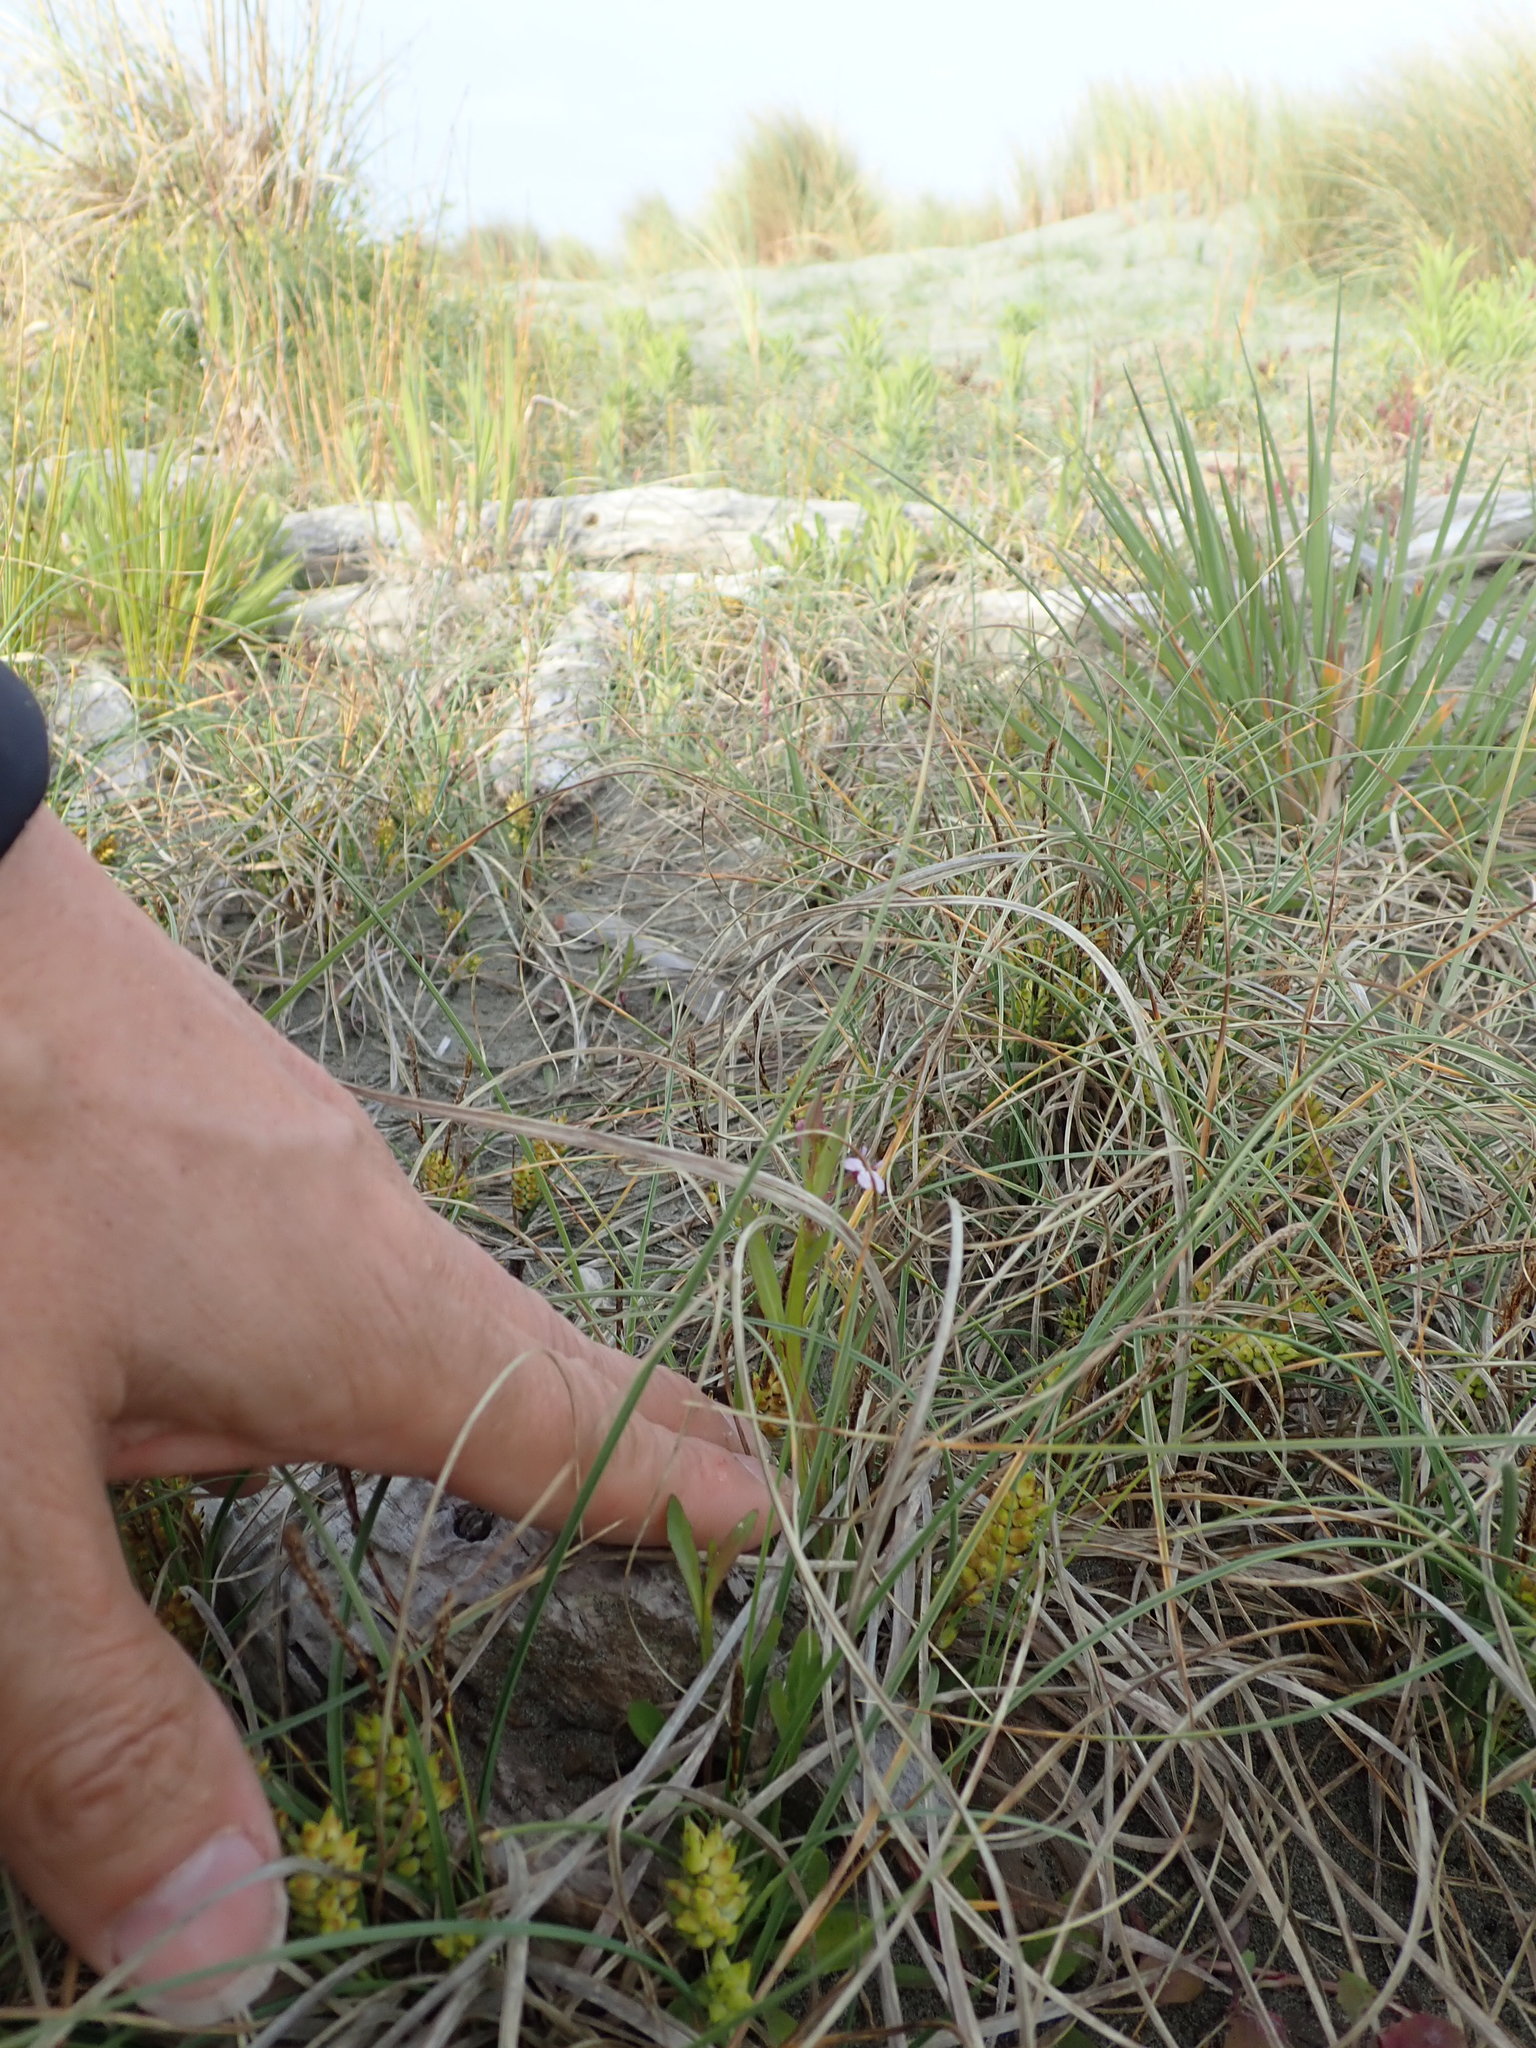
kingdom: Plantae
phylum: Tracheophyta
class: Magnoliopsida
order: Asterales
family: Campanulaceae
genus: Lobelia
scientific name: Lobelia anceps
